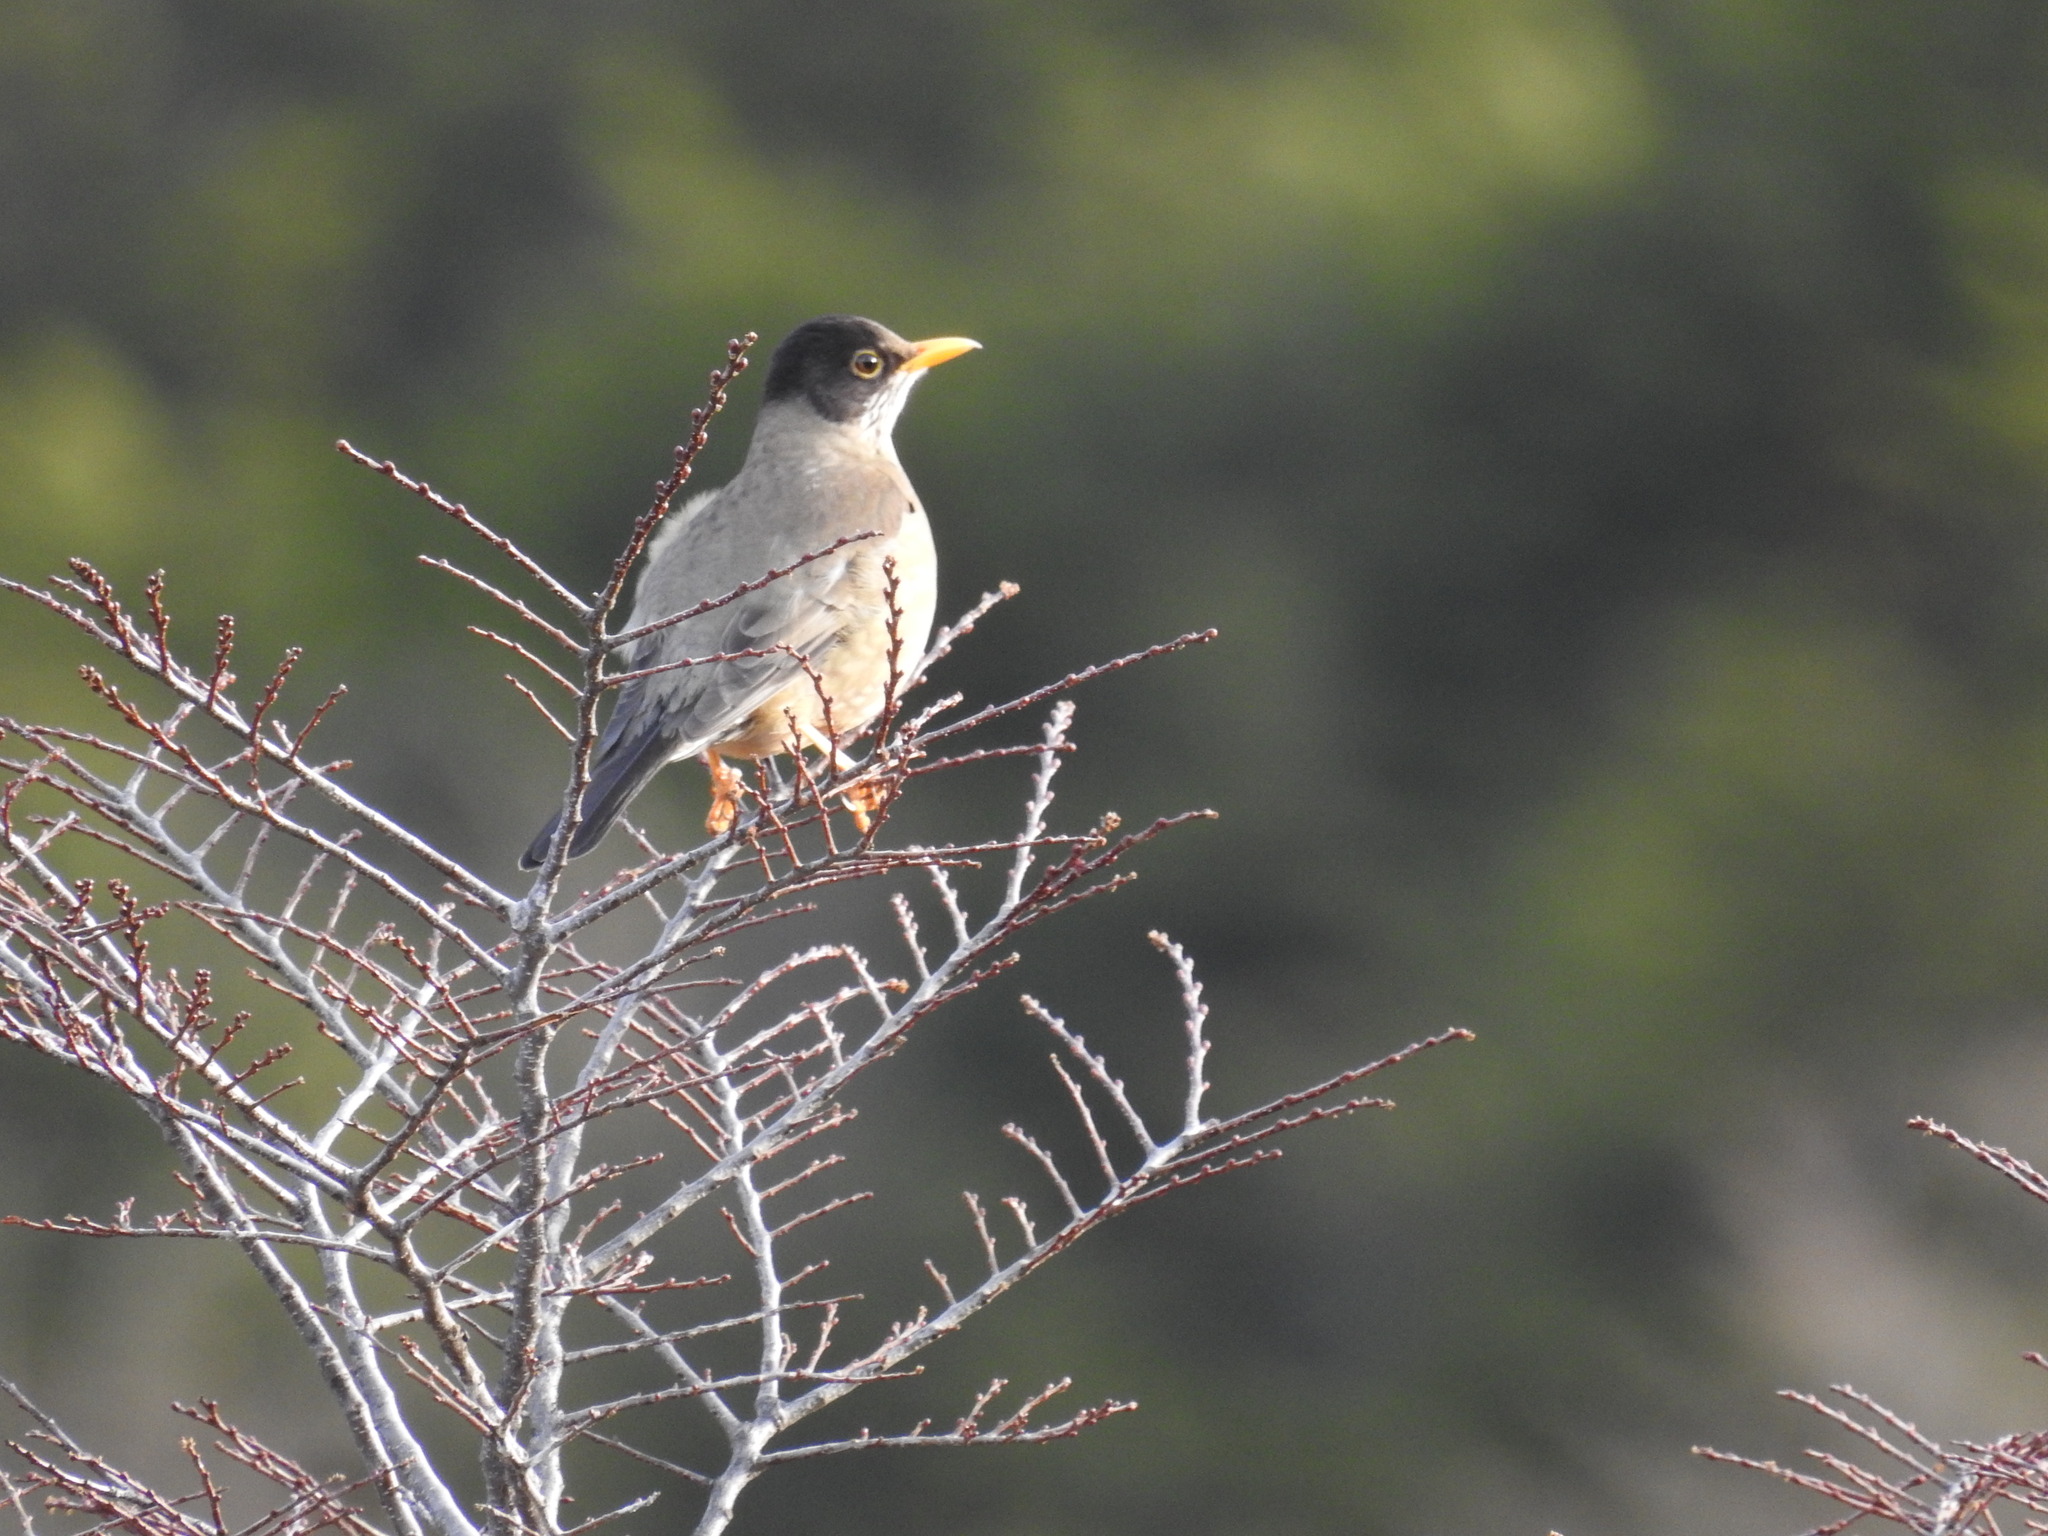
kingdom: Animalia
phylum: Chordata
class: Aves
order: Passeriformes
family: Turdidae
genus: Turdus
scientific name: Turdus falcklandii
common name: Austral thrush
